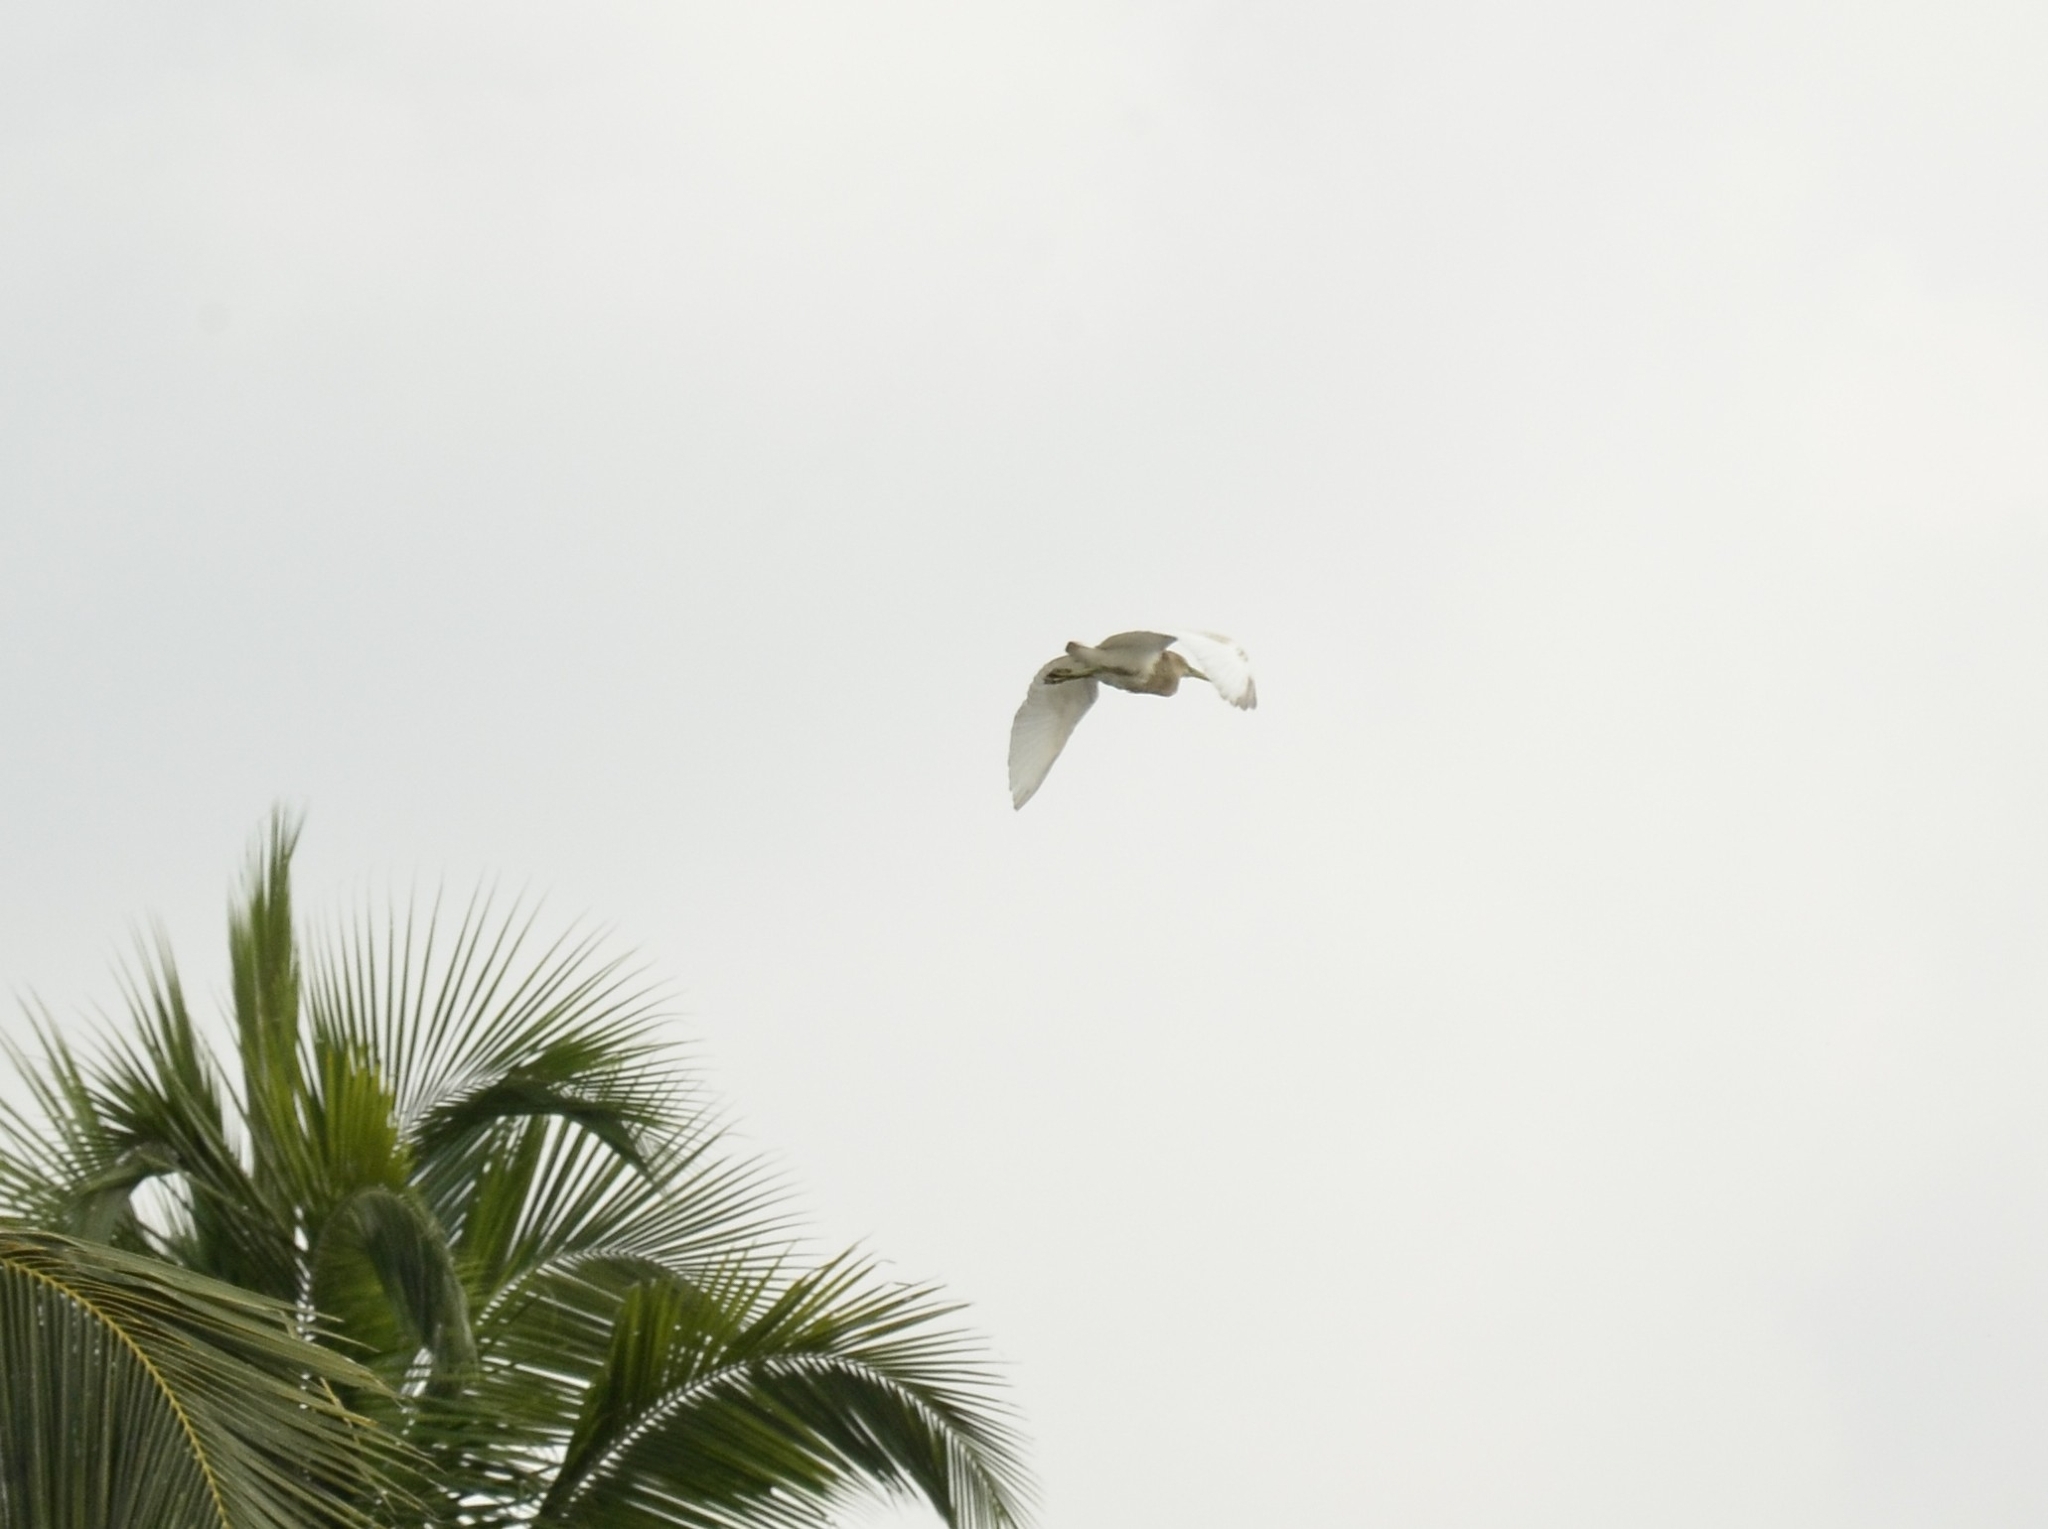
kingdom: Animalia
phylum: Chordata
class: Aves
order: Pelecaniformes
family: Ardeidae
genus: Ardeola
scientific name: Ardeola grayii
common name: Indian pond heron
